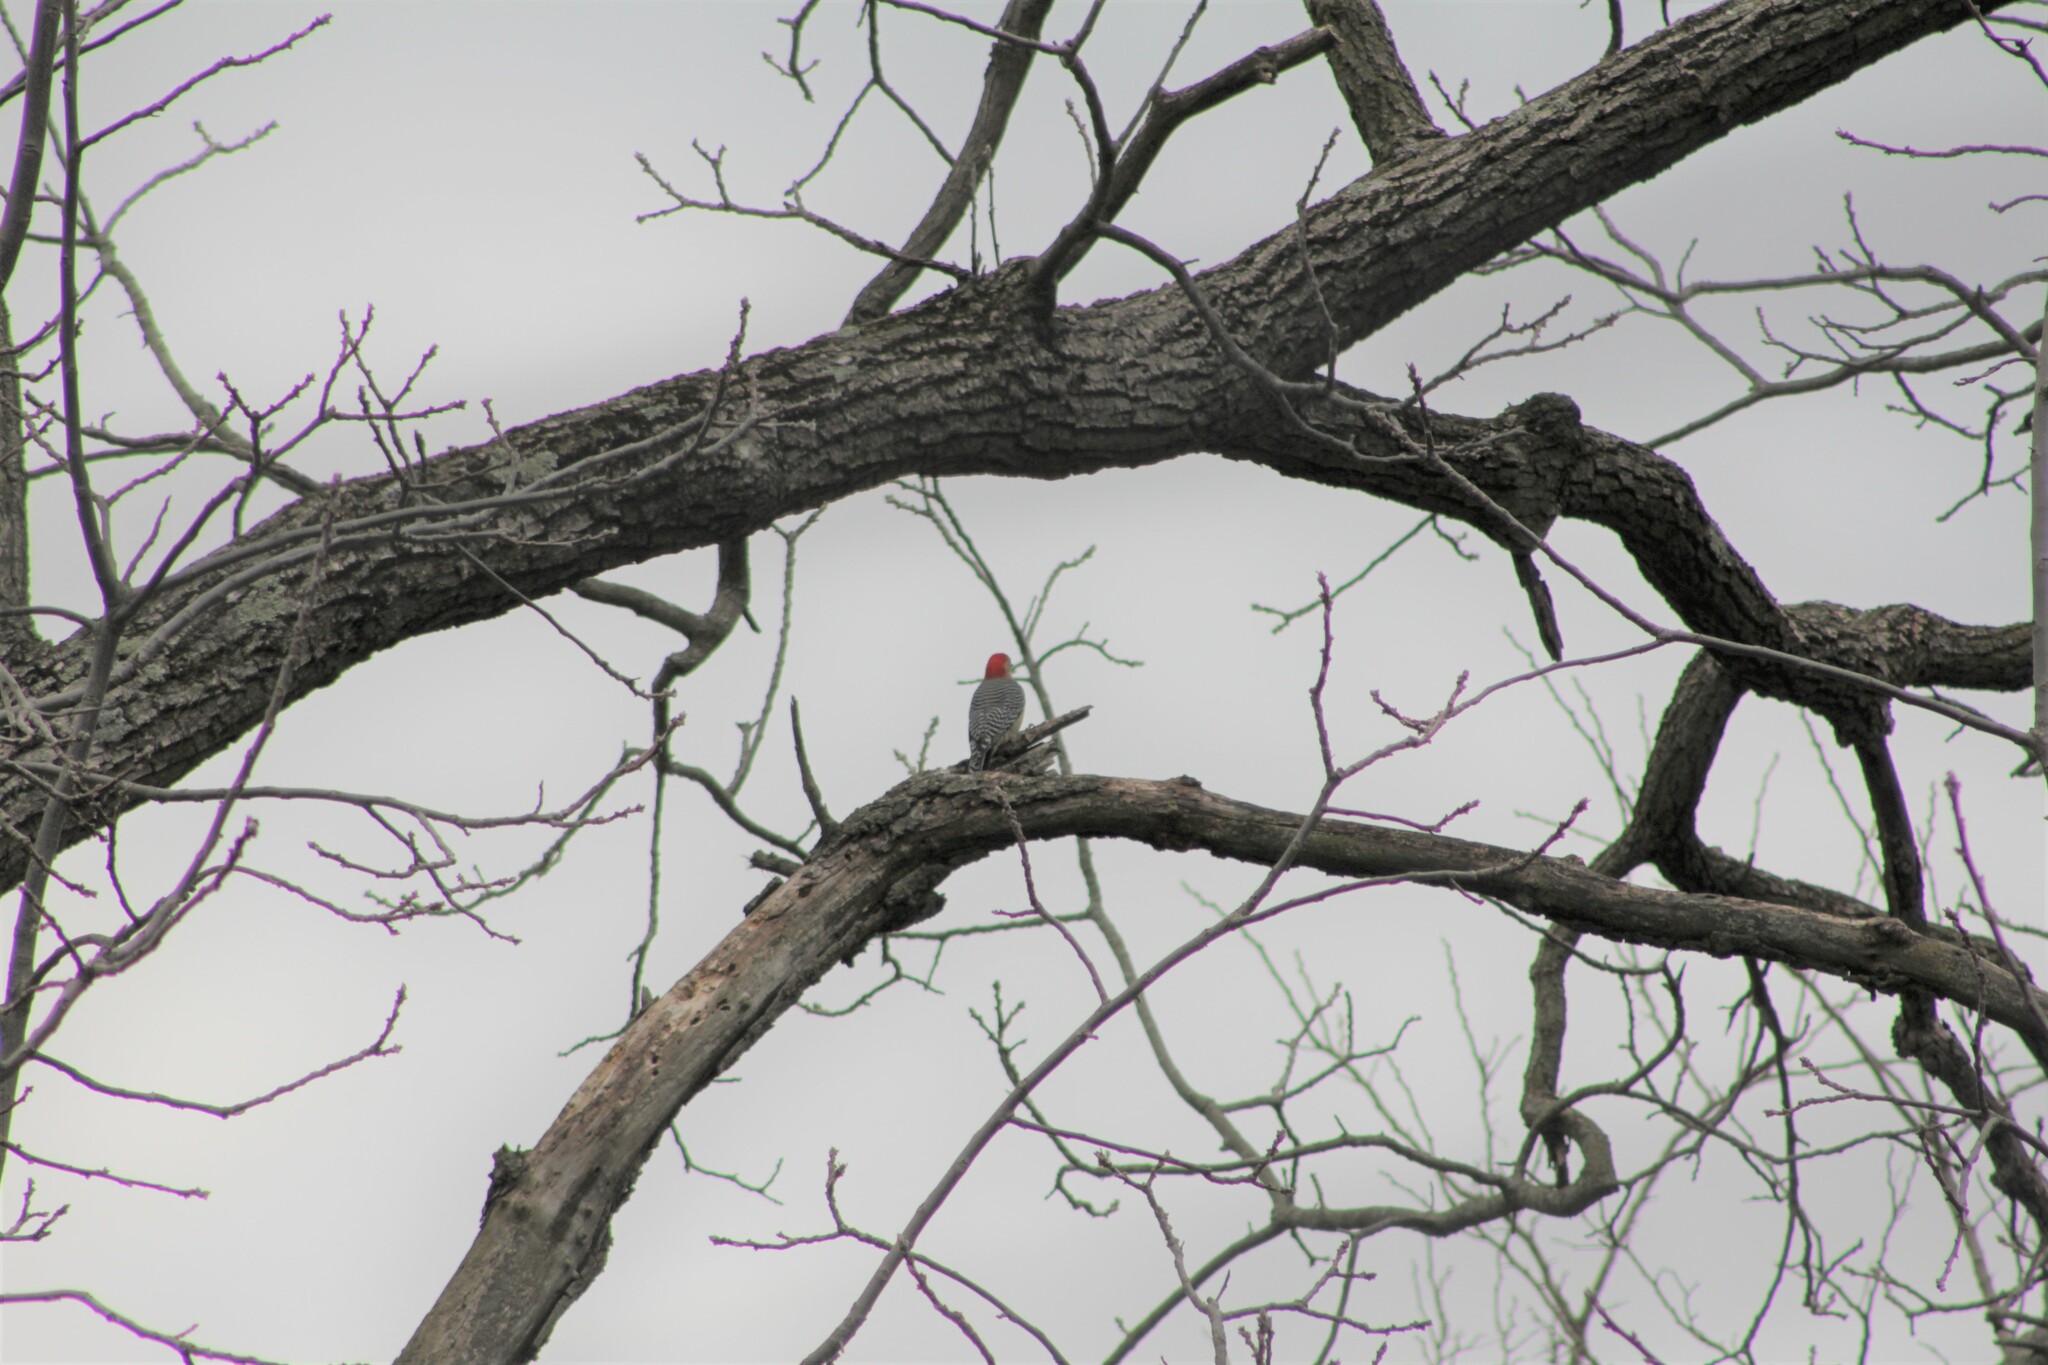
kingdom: Animalia
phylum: Chordata
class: Aves
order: Piciformes
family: Picidae
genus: Melanerpes
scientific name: Melanerpes carolinus
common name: Red-bellied woodpecker
